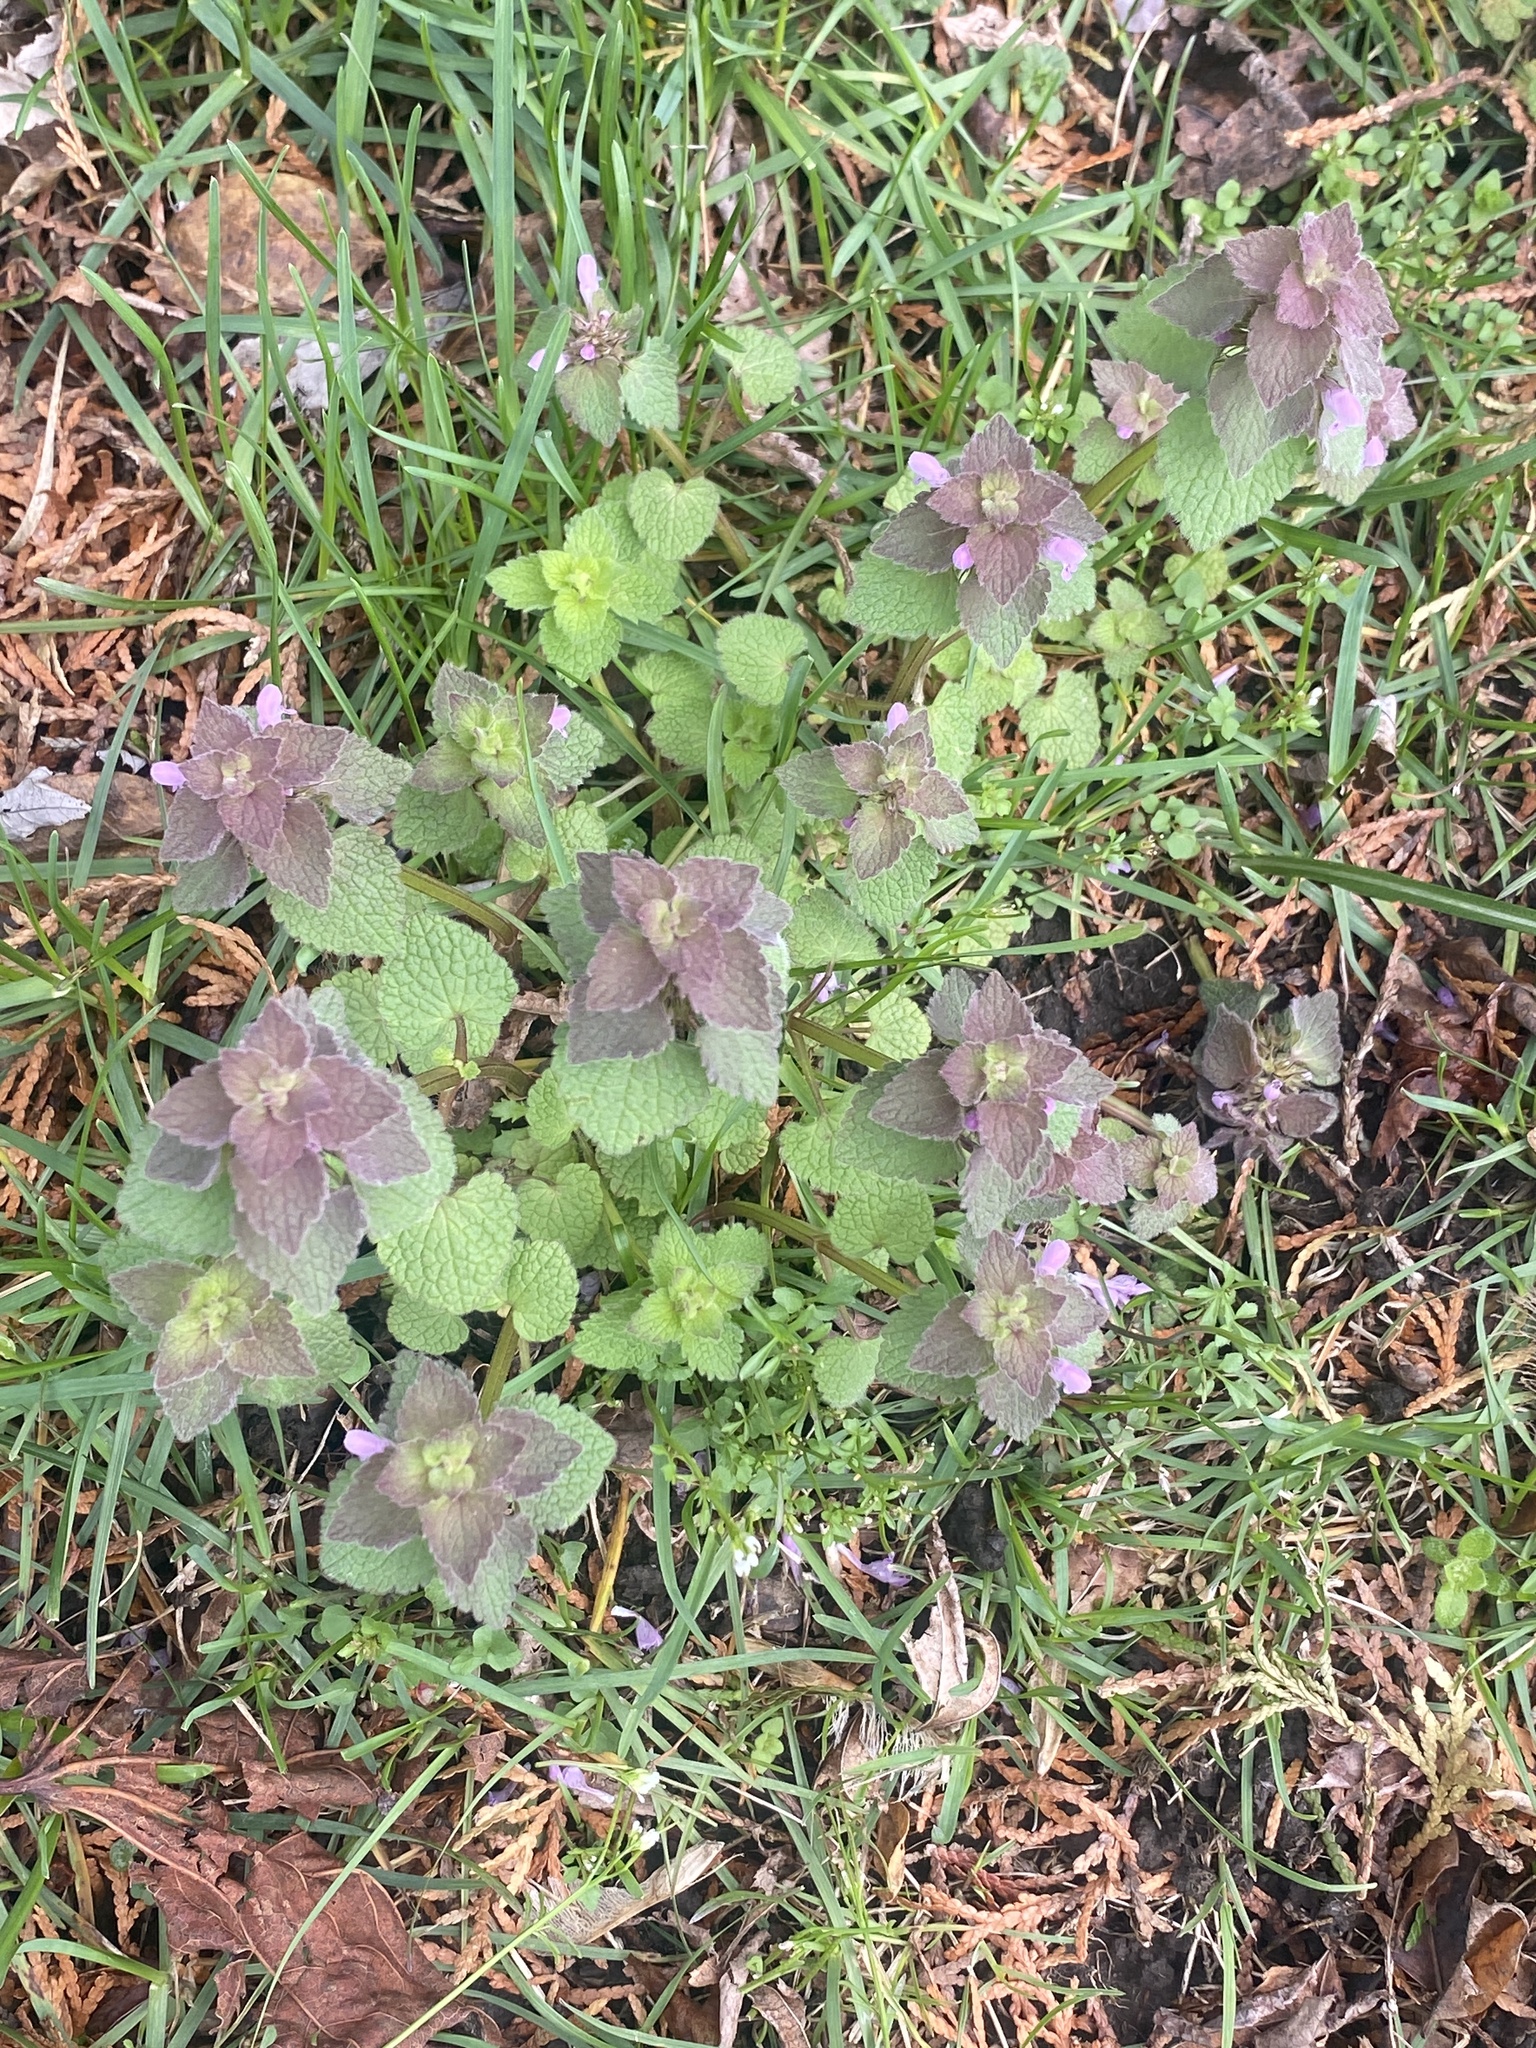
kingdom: Plantae
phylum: Tracheophyta
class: Magnoliopsida
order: Lamiales
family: Lamiaceae
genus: Lamium
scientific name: Lamium purpureum
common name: Red dead-nettle
